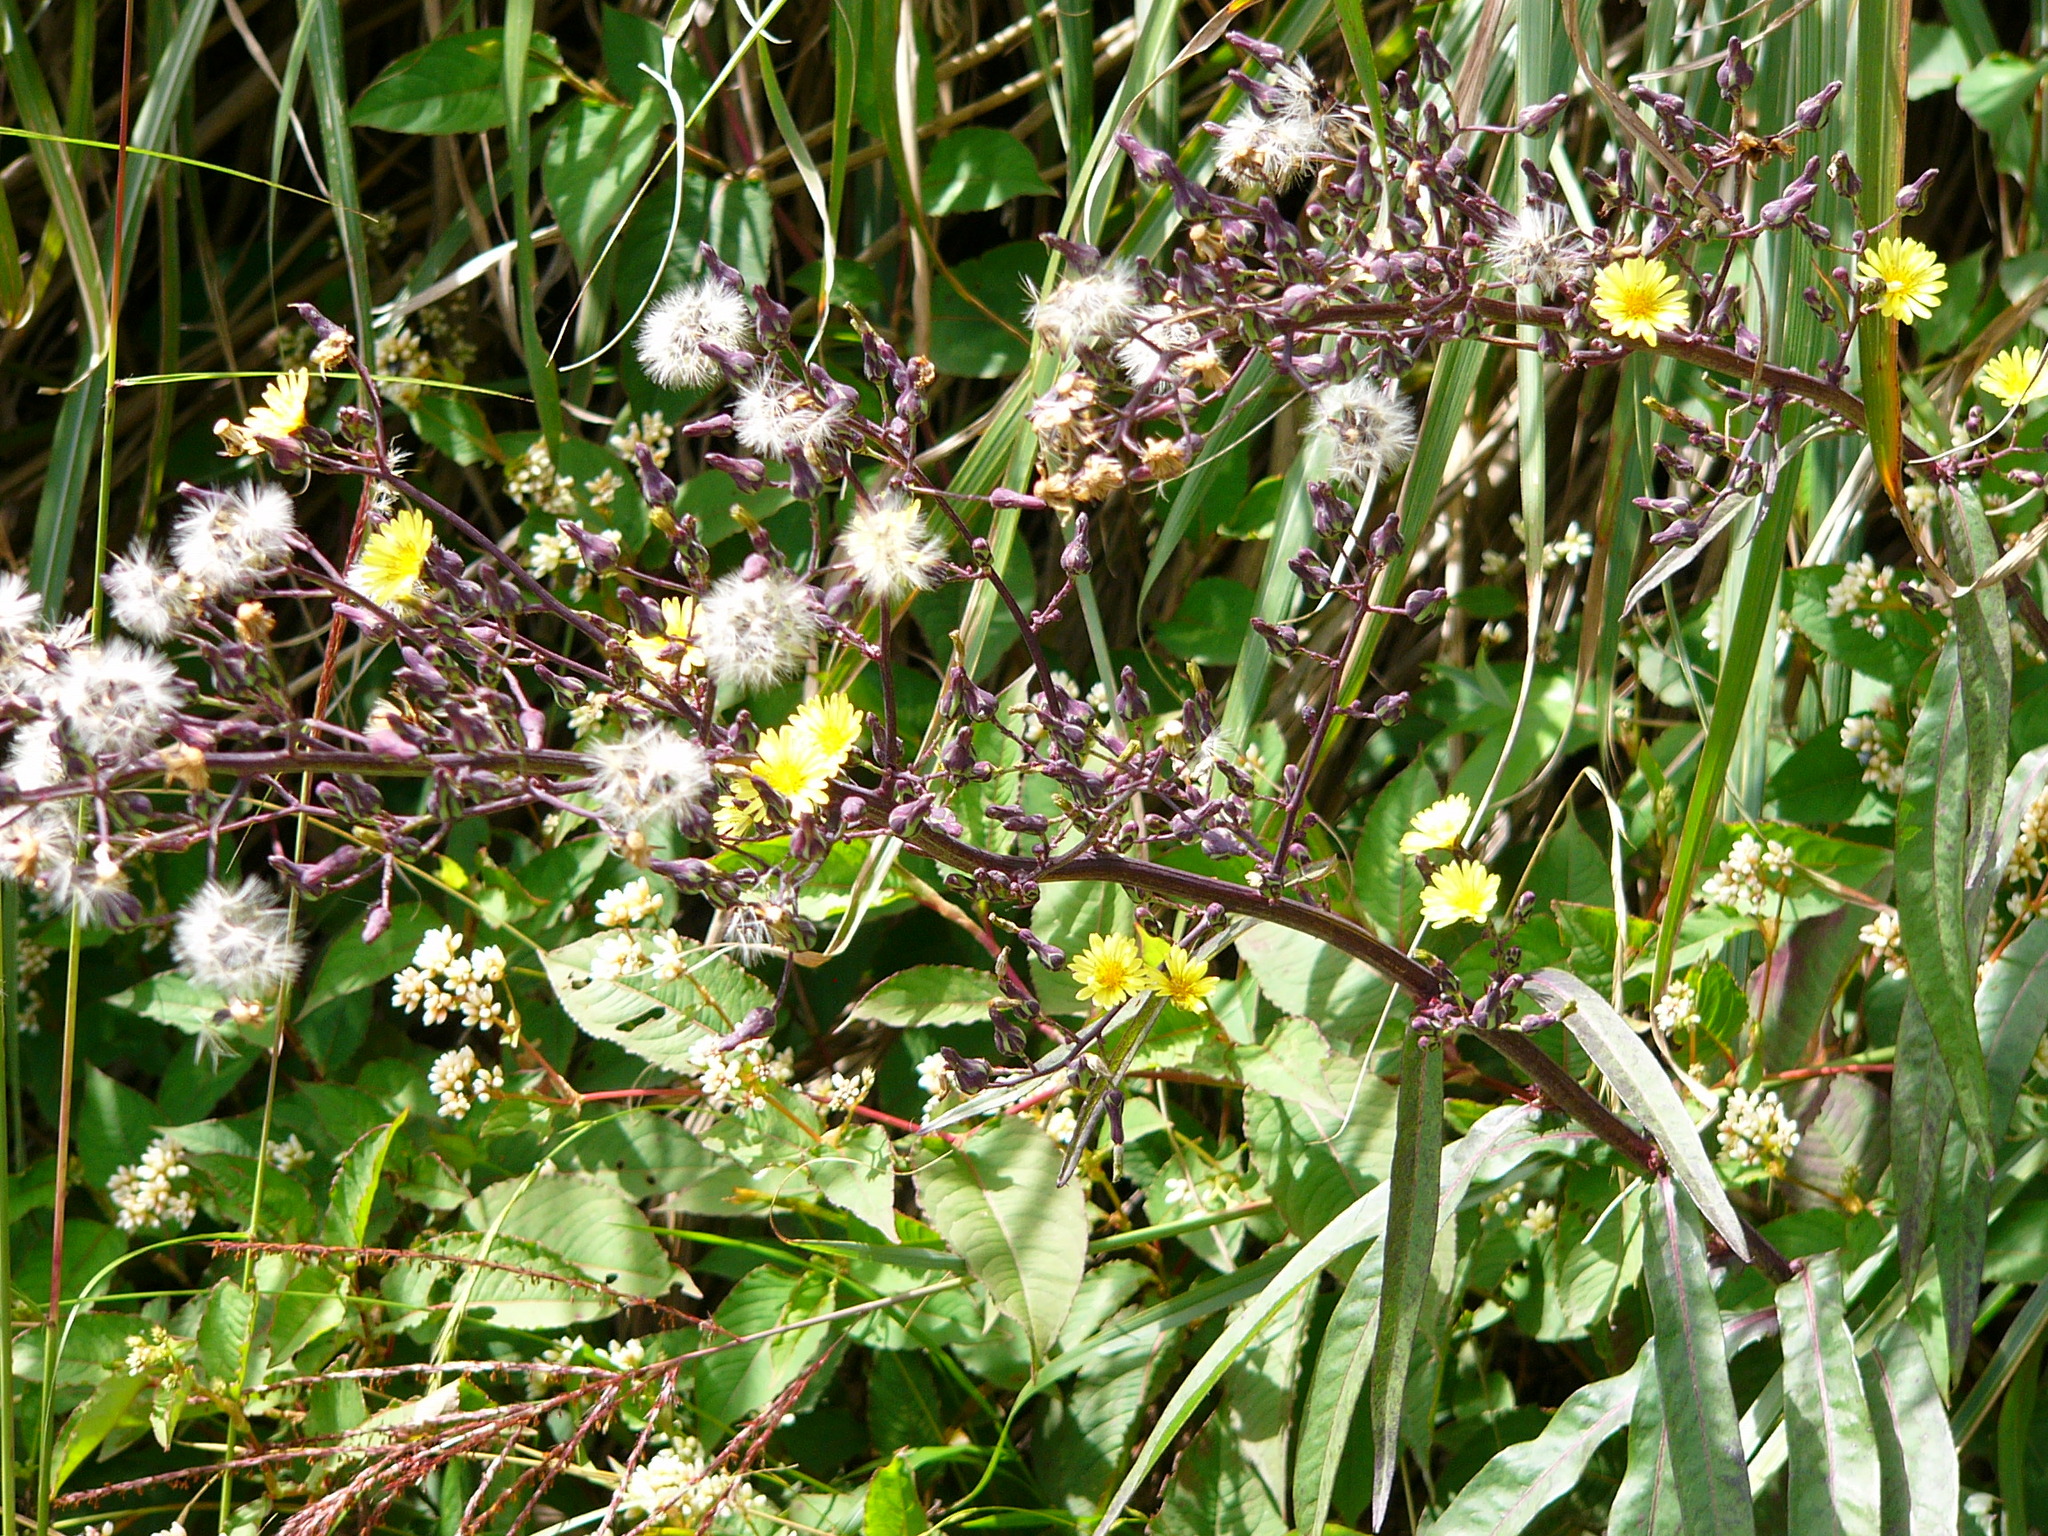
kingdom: Plantae
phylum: Tracheophyta
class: Magnoliopsida
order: Asterales
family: Asteraceae
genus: Lactuca
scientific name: Lactuca indica
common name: Wild lettuce
